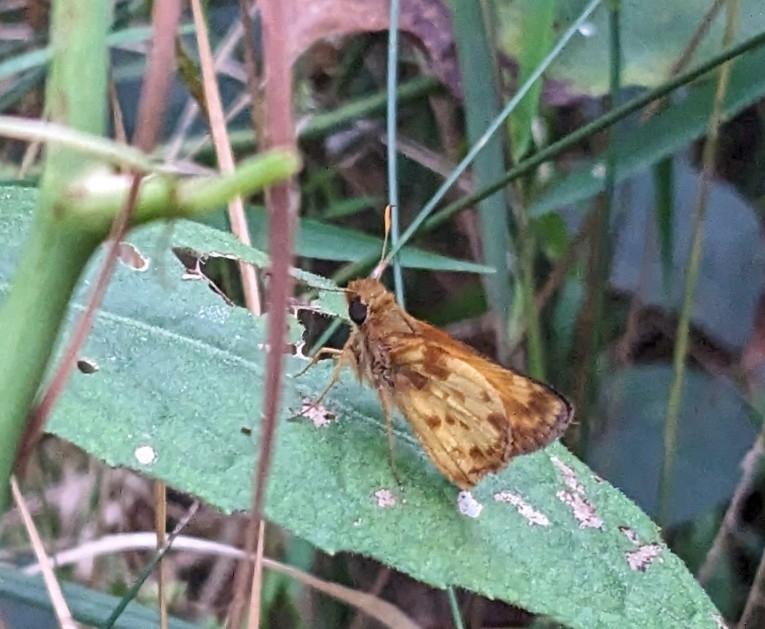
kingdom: Animalia
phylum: Arthropoda
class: Insecta
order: Lepidoptera
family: Hesperiidae
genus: Lon
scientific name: Lon zabulon
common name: Zabulon skipper
